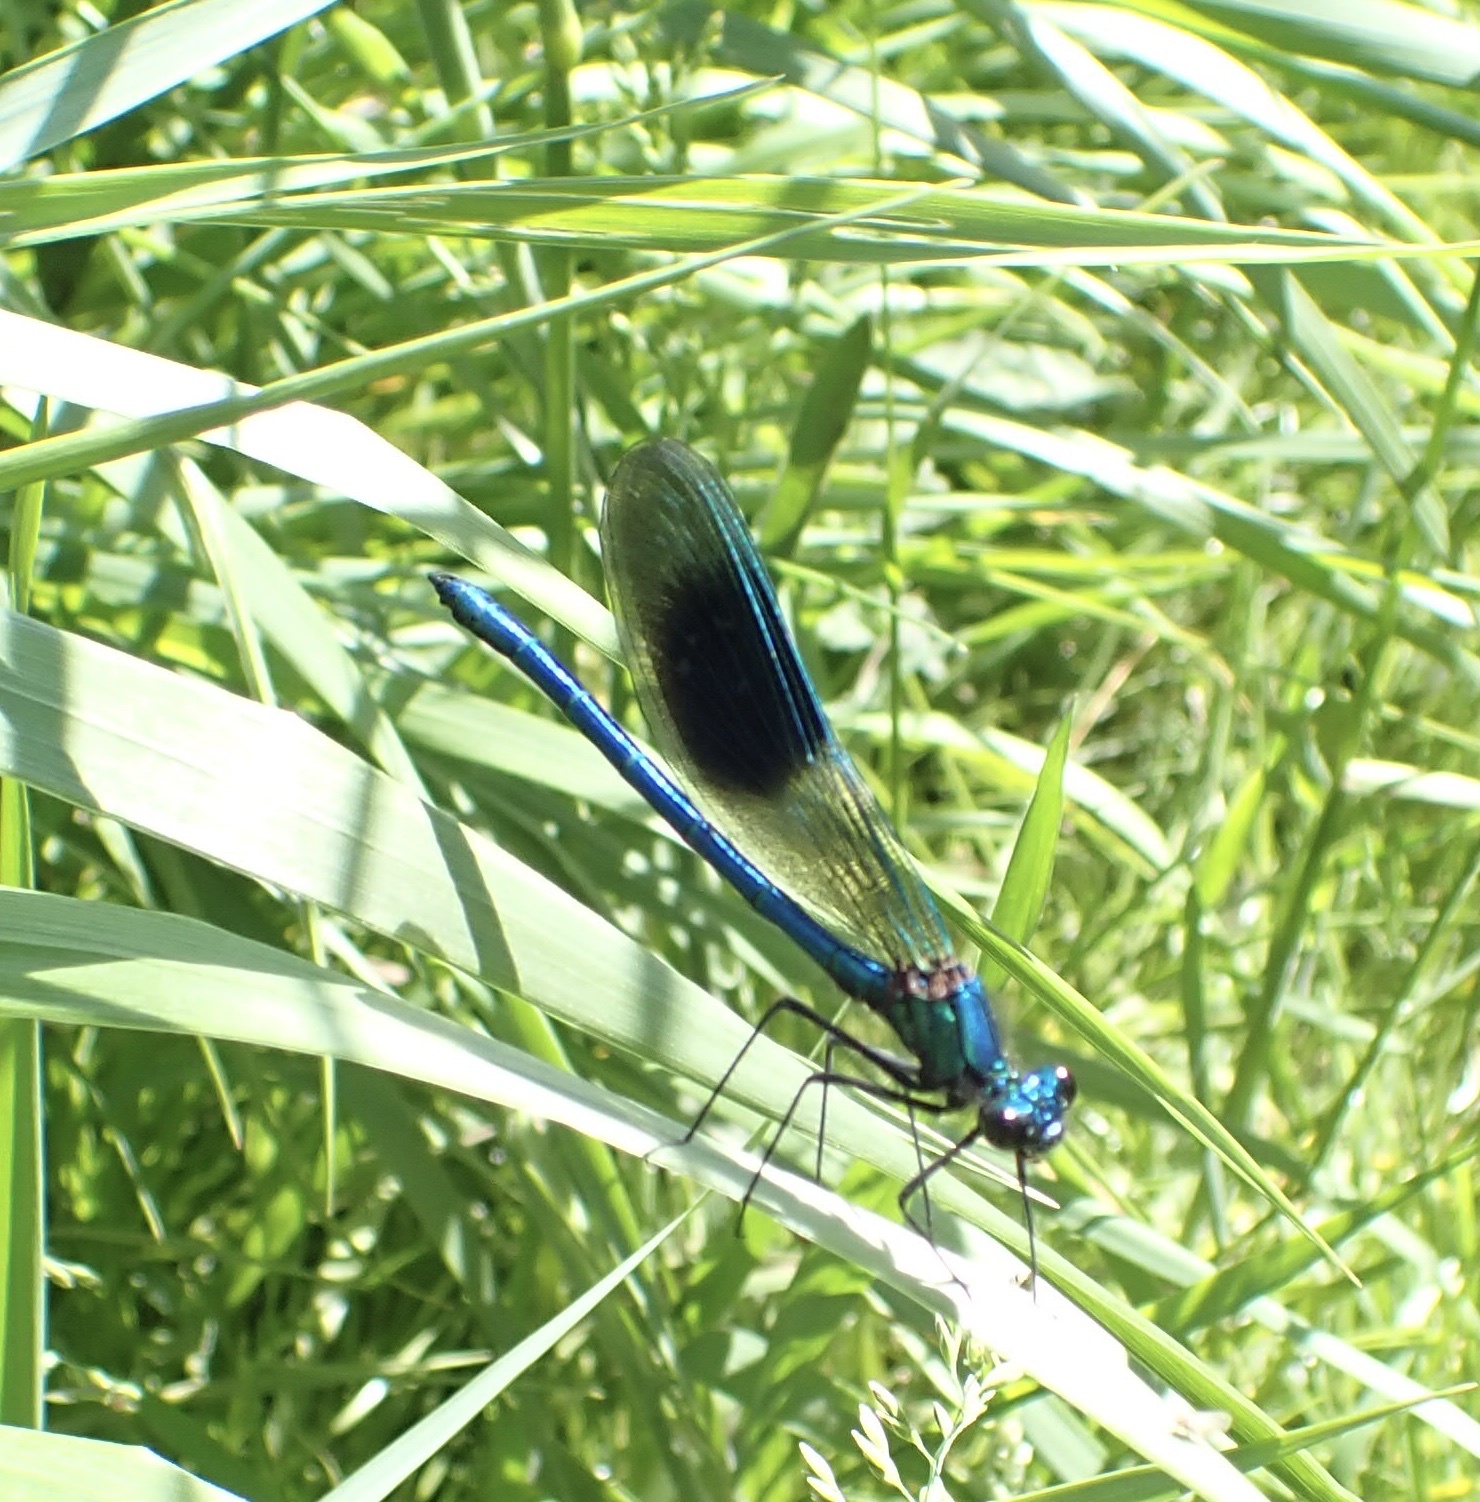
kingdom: Animalia
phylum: Arthropoda
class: Insecta
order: Odonata
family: Calopterygidae
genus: Calopteryx
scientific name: Calopteryx splendens
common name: Banded demoiselle
